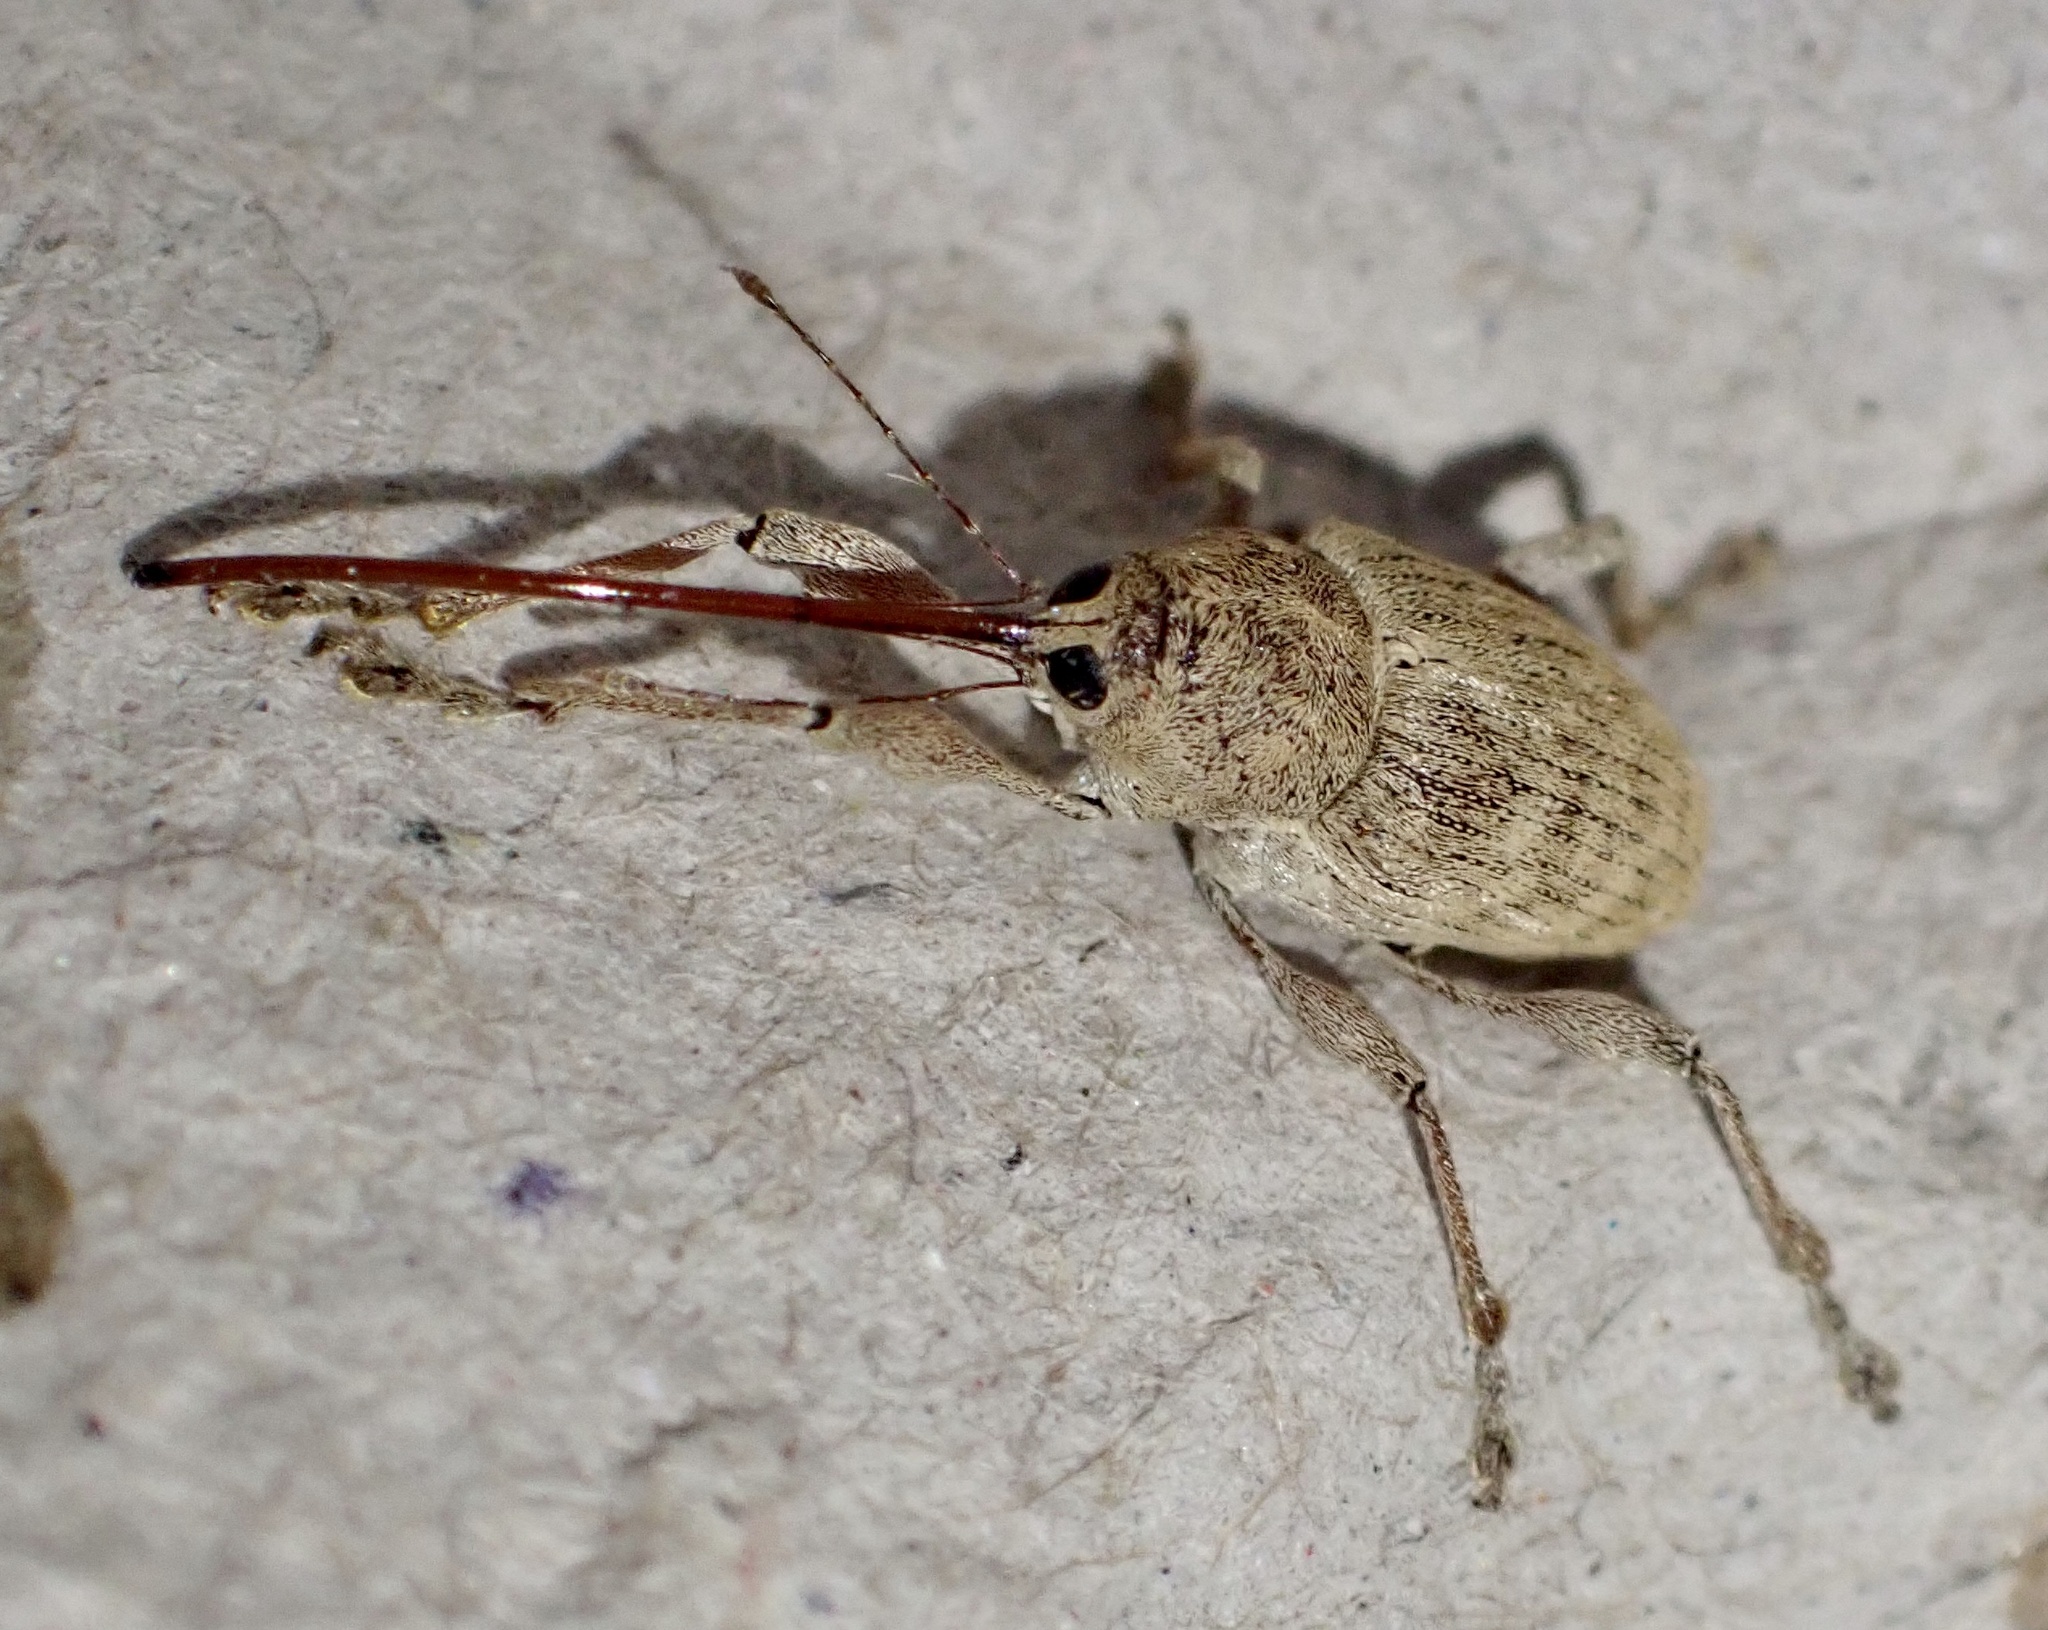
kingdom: Animalia
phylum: Arthropoda
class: Insecta
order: Coleoptera
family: Curculionidae
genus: Curculio
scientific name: Curculio elephas
